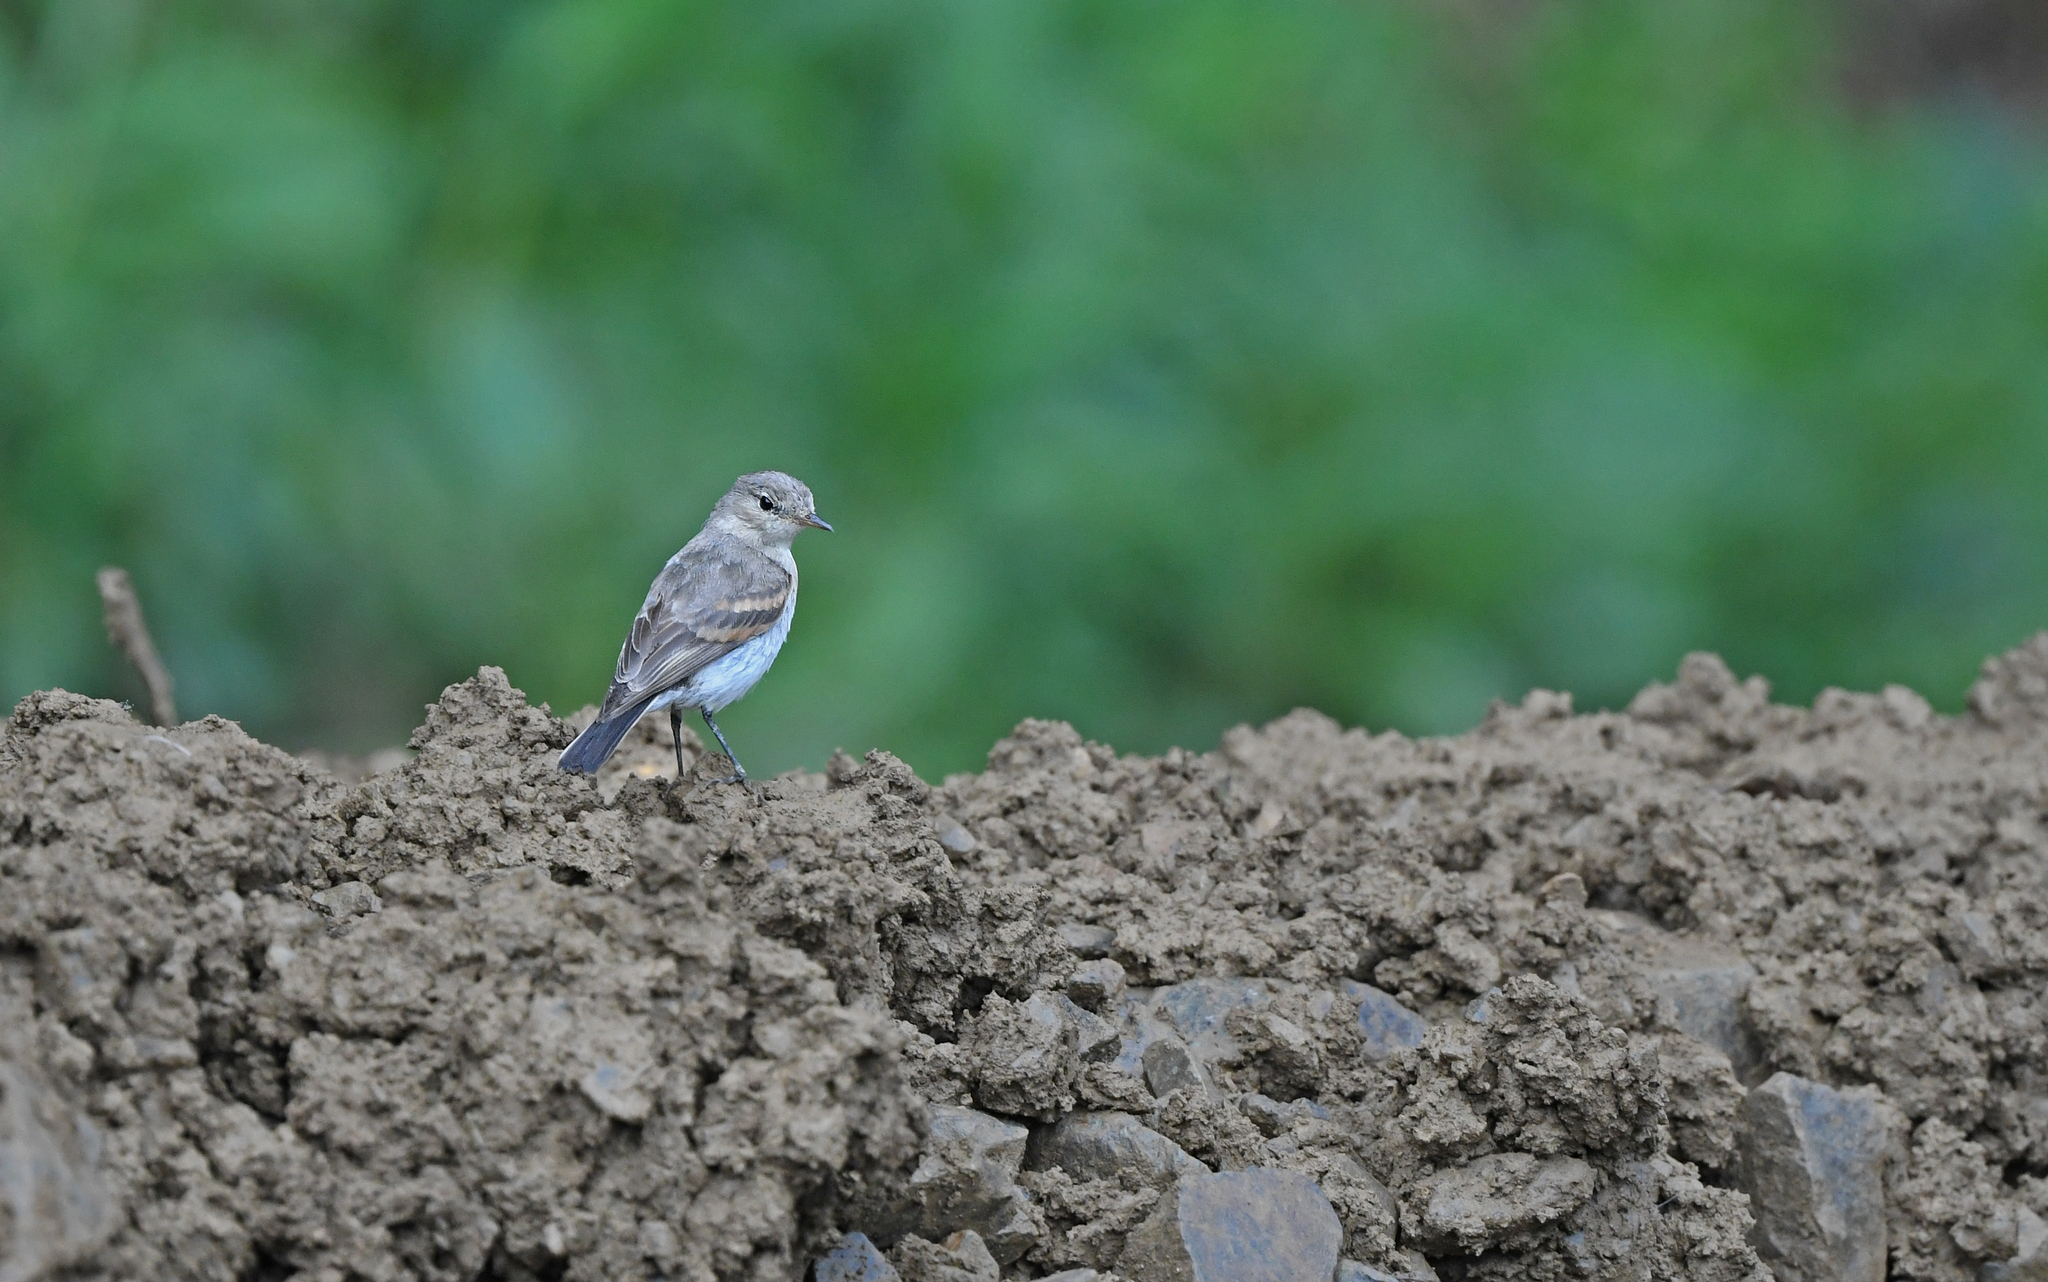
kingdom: Animalia
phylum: Chordata
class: Aves
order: Passeriformes
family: Tyrannidae
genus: Muscisaxicola
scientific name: Muscisaxicola fluviatilis
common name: Little ground tyrant
